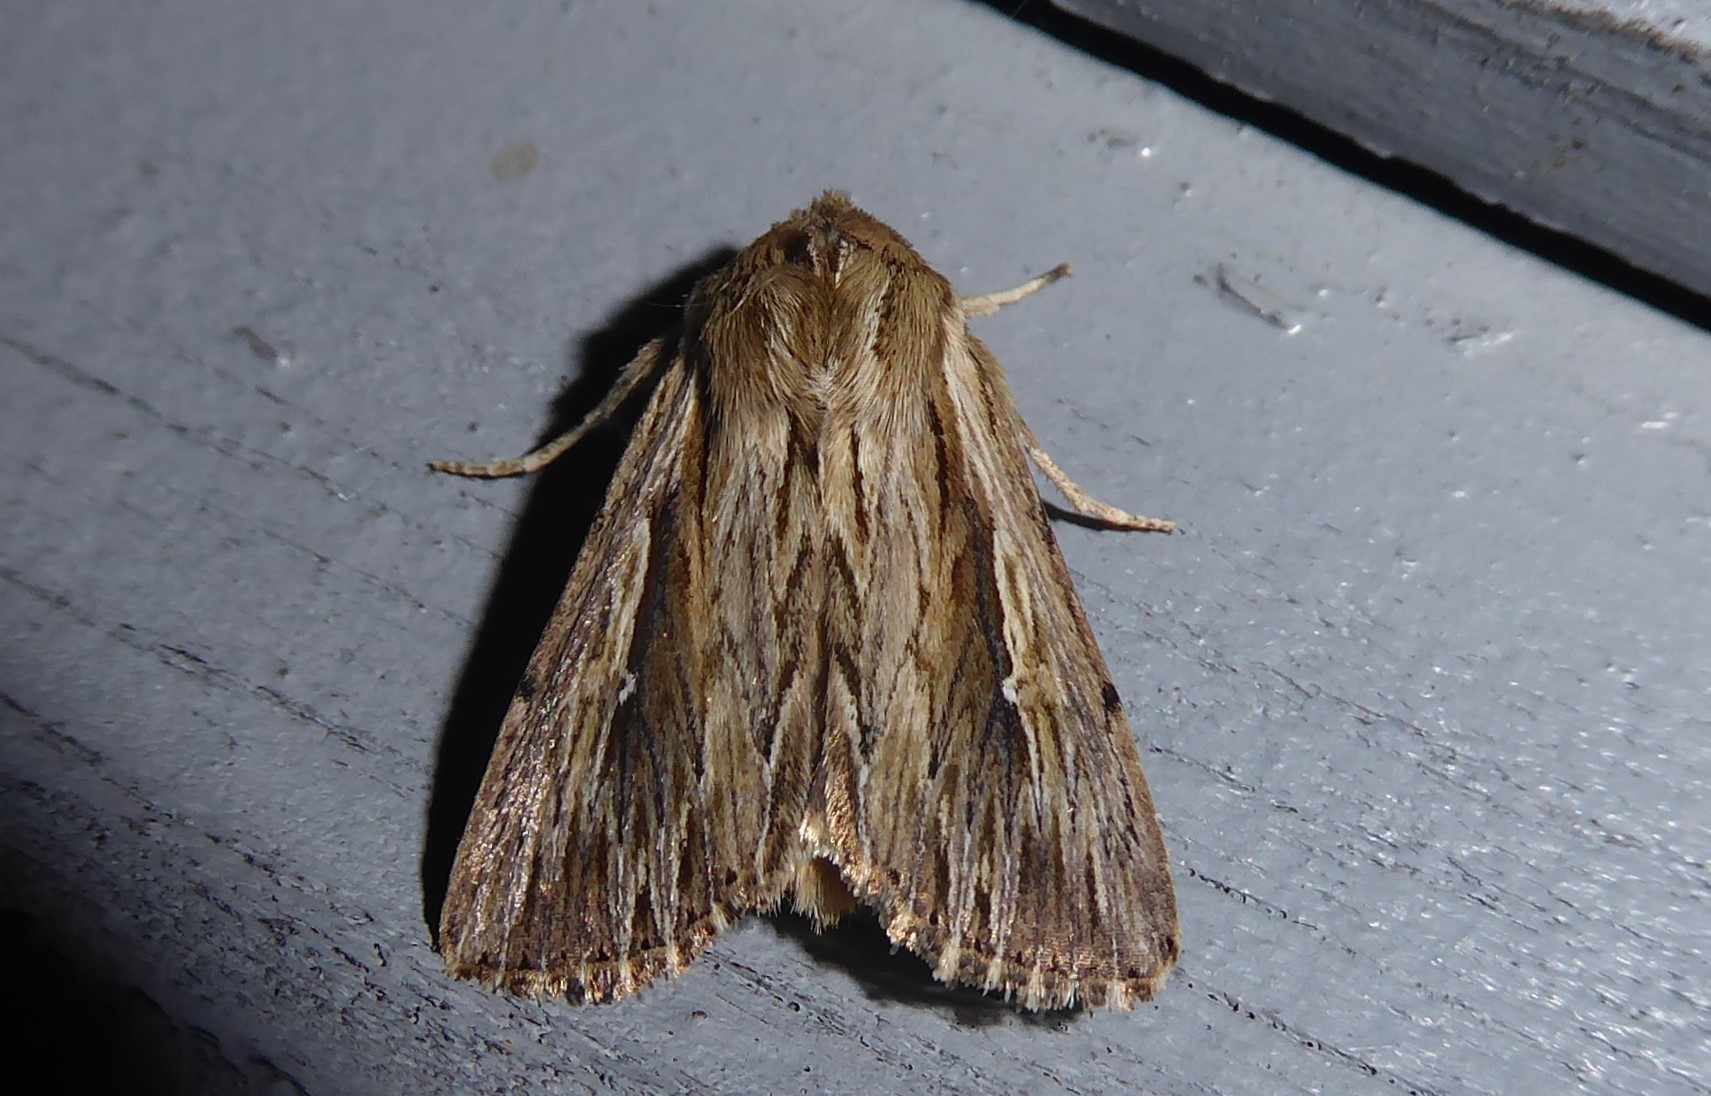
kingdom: Animalia
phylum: Arthropoda
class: Insecta
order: Lepidoptera
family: Noctuidae
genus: Persectania
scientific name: Persectania aversa
